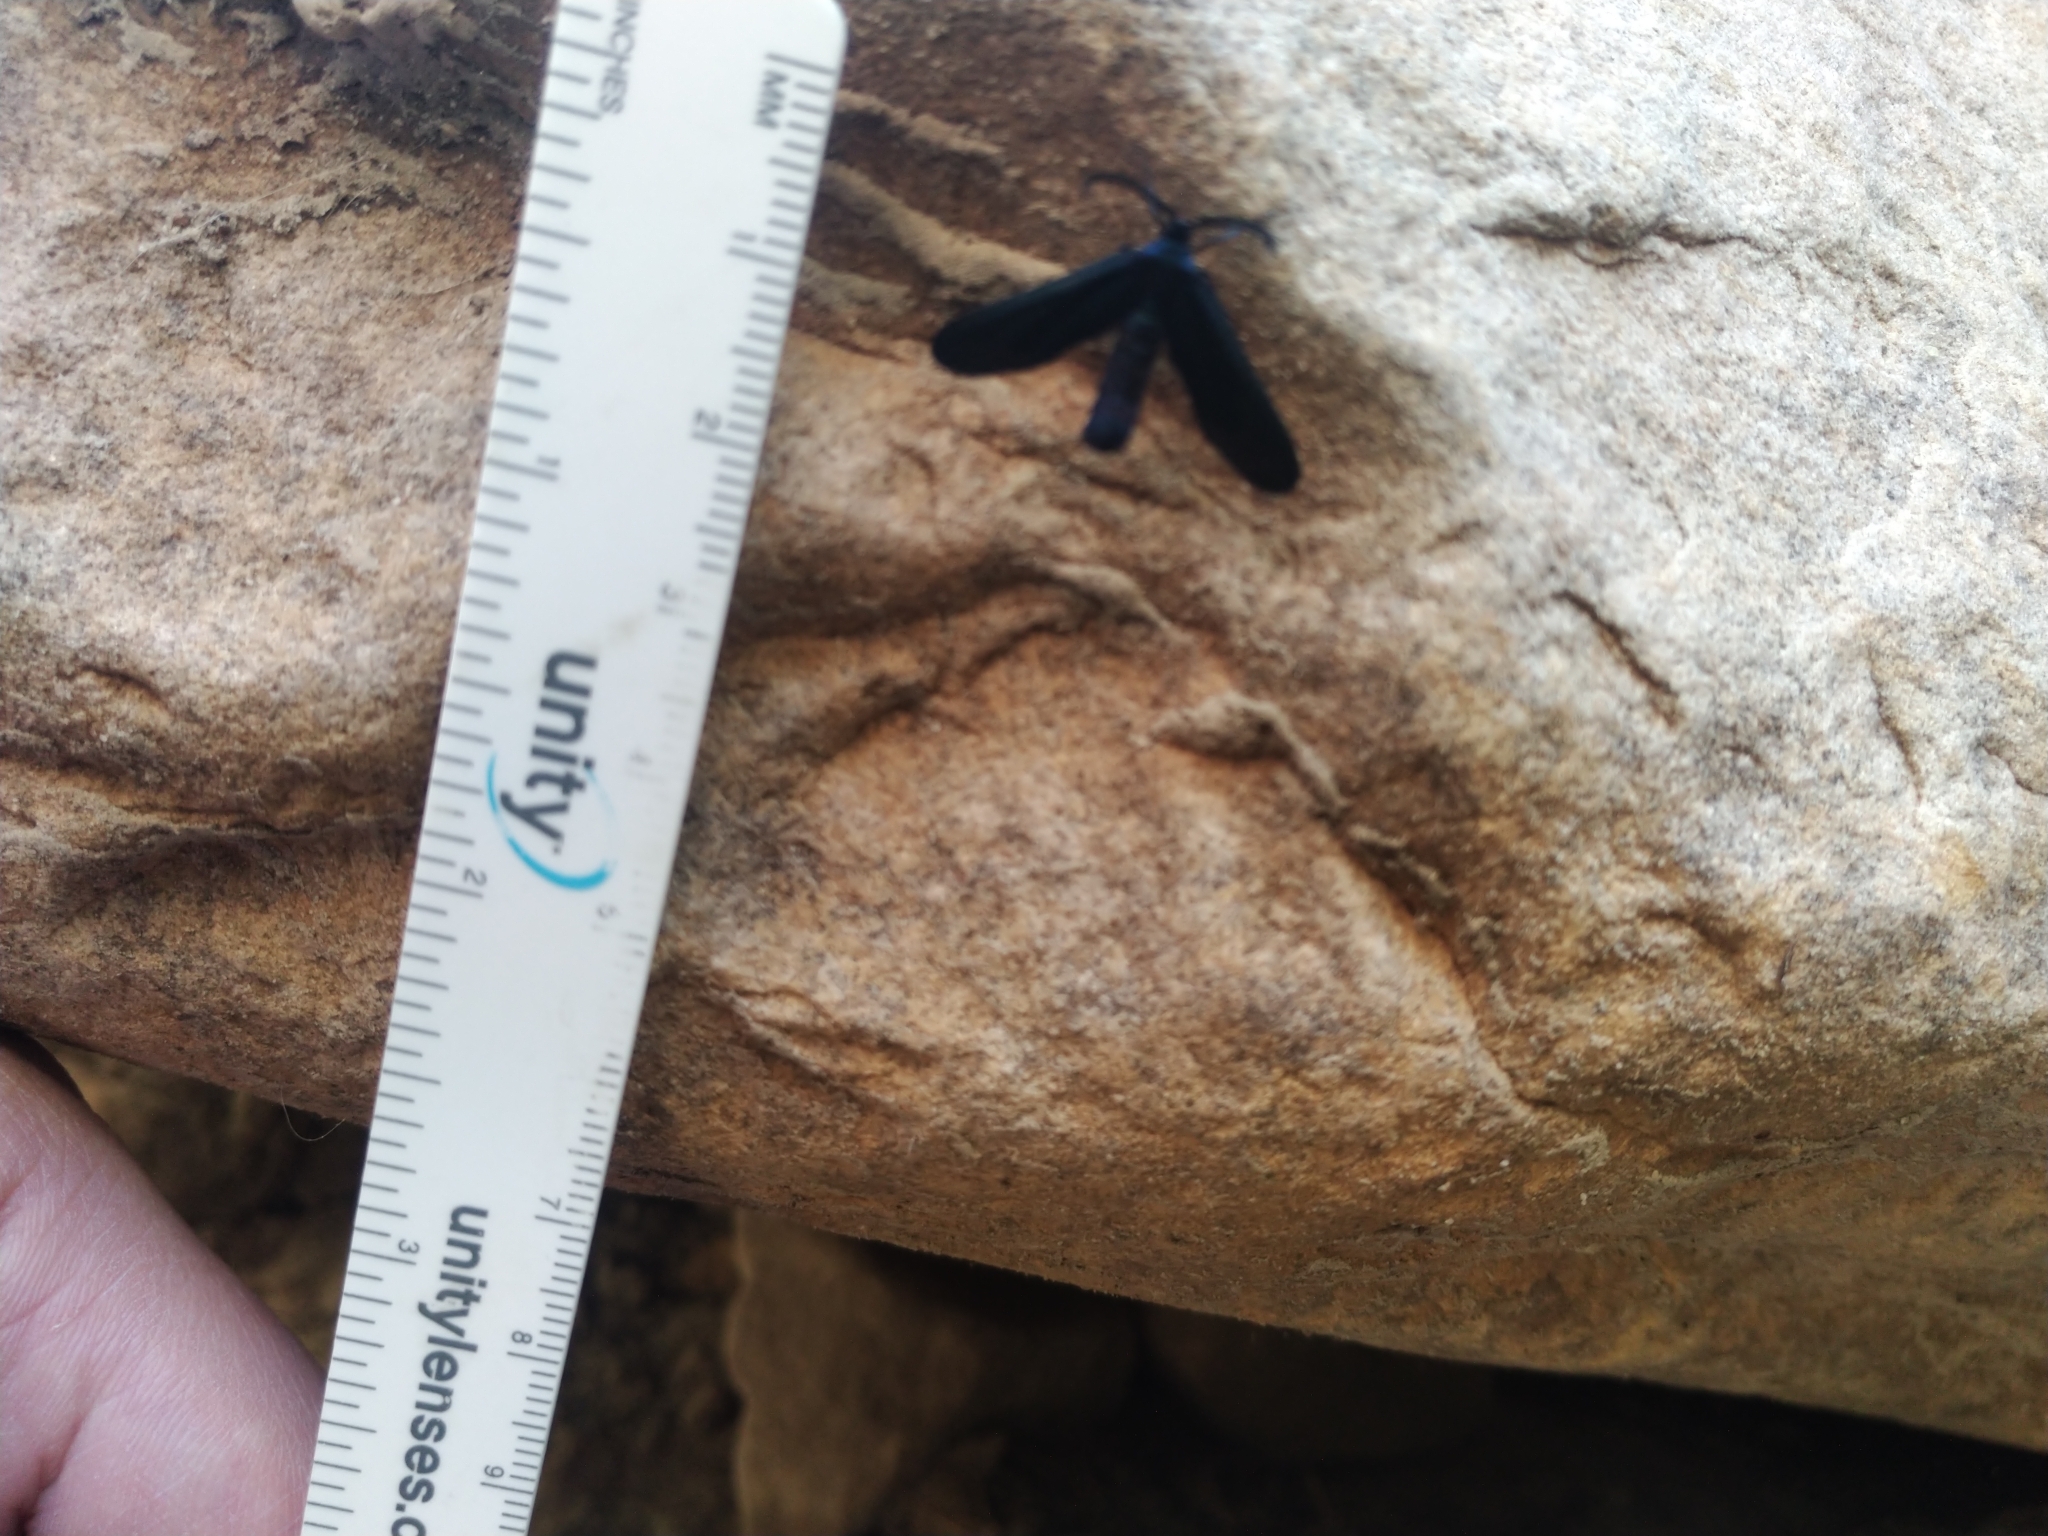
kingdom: Animalia
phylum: Arthropoda
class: Insecta
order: Lepidoptera
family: Zygaenidae
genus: Harrisina
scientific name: Harrisina metallica
